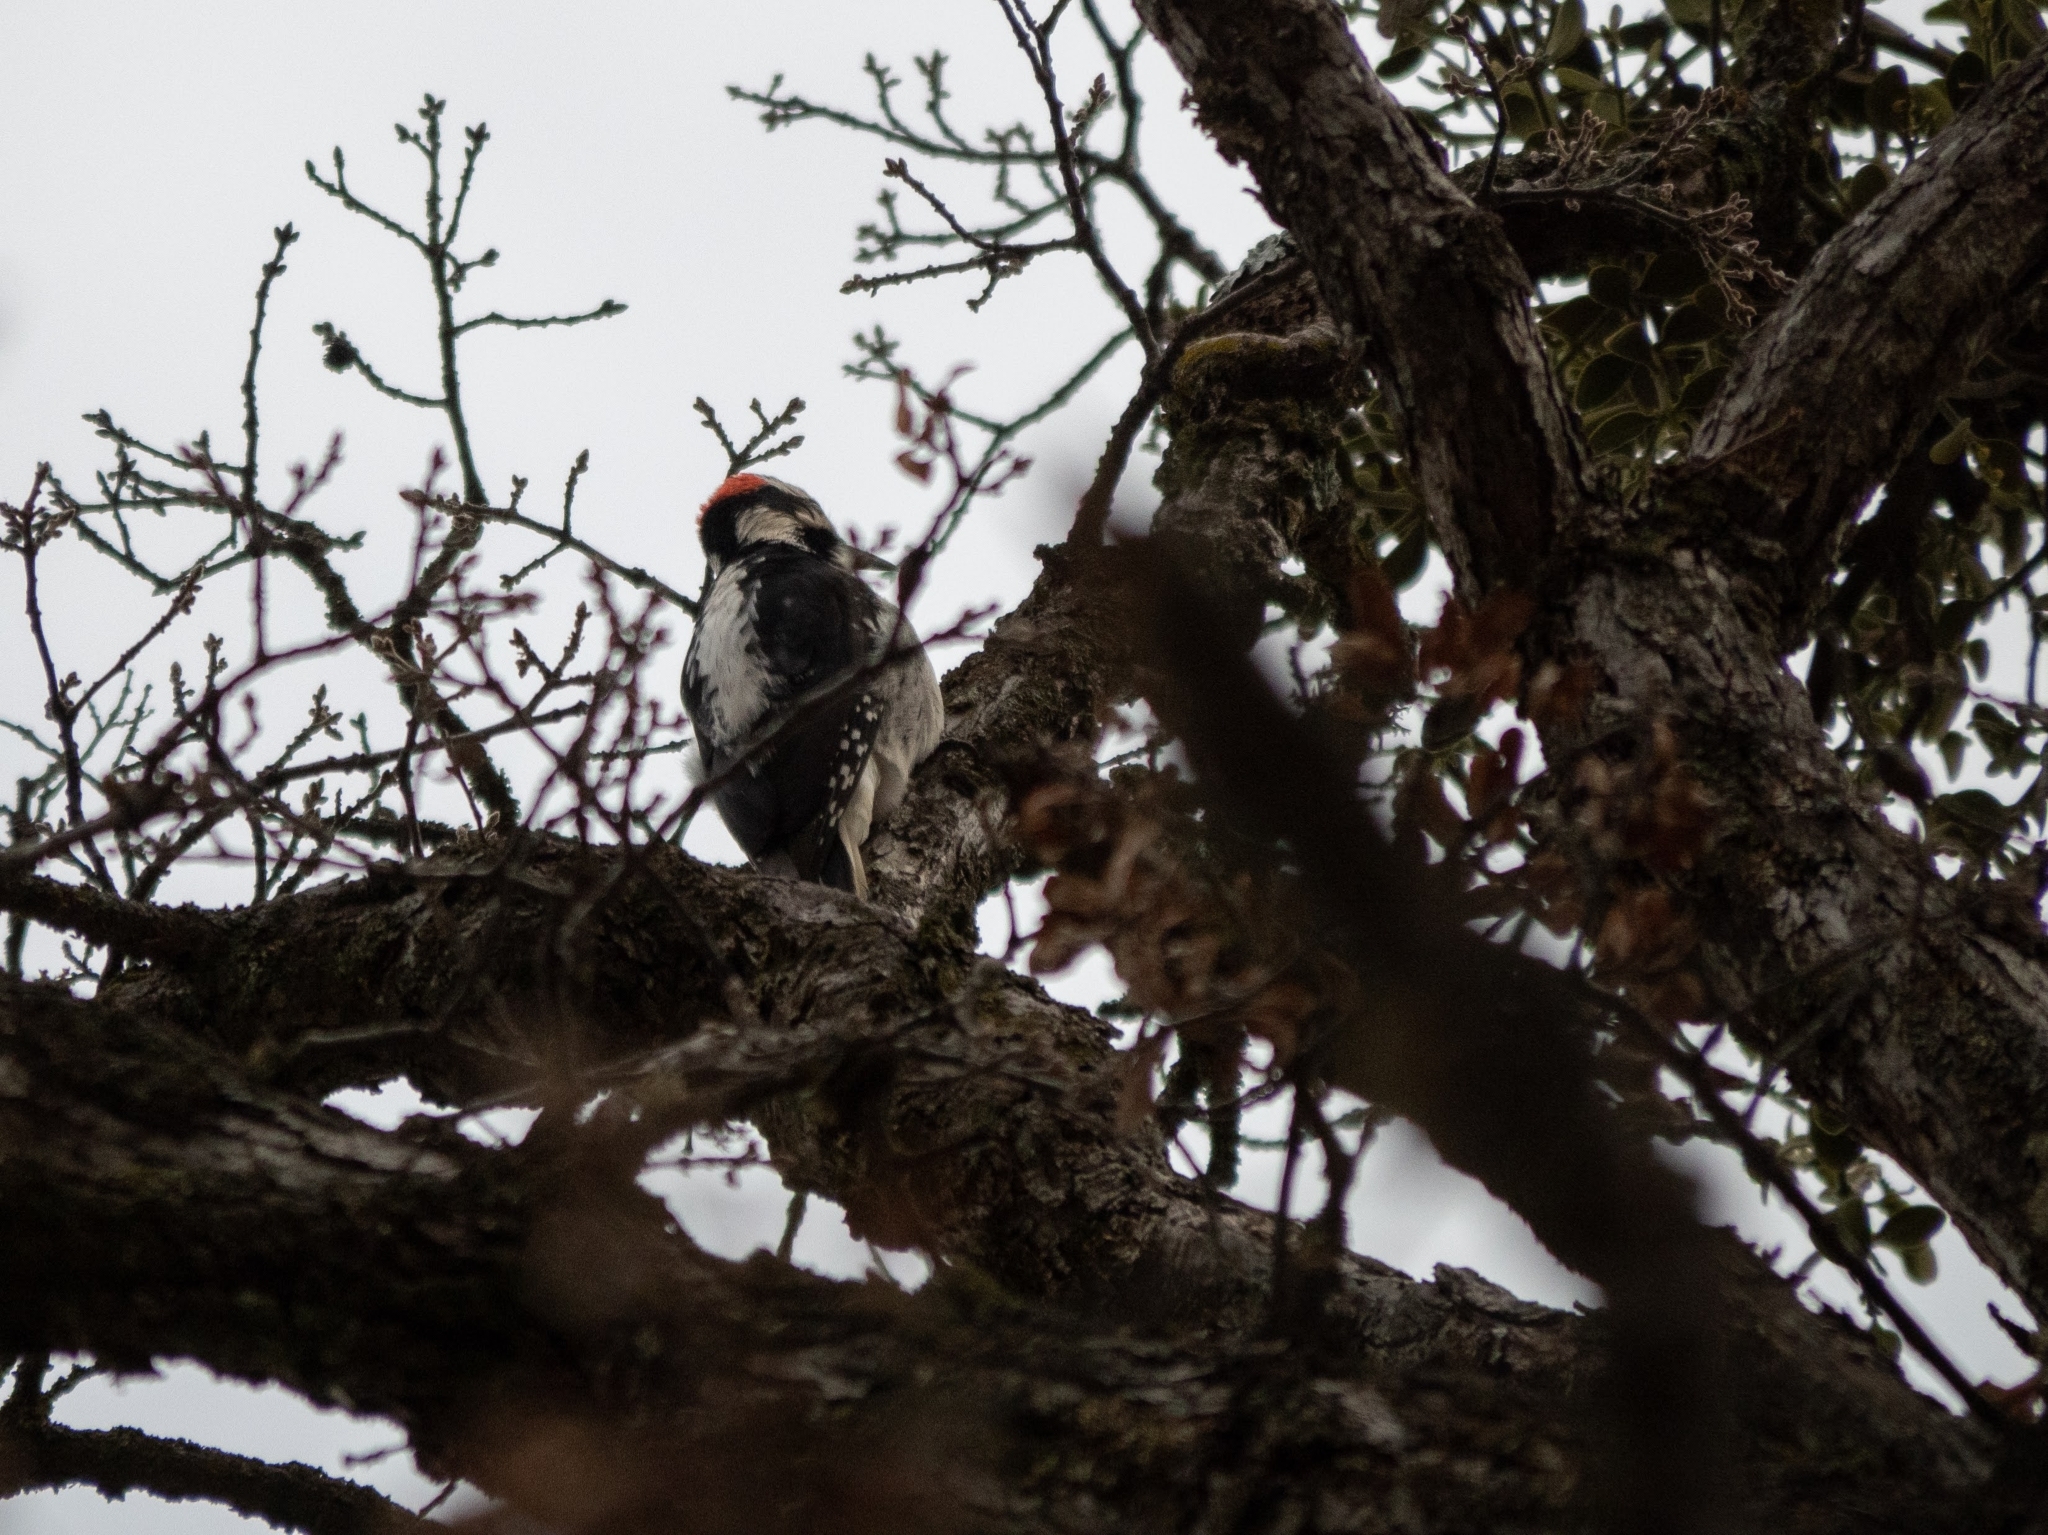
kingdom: Animalia
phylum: Chordata
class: Aves
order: Piciformes
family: Picidae
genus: Leuconotopicus
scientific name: Leuconotopicus villosus
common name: Hairy woodpecker
